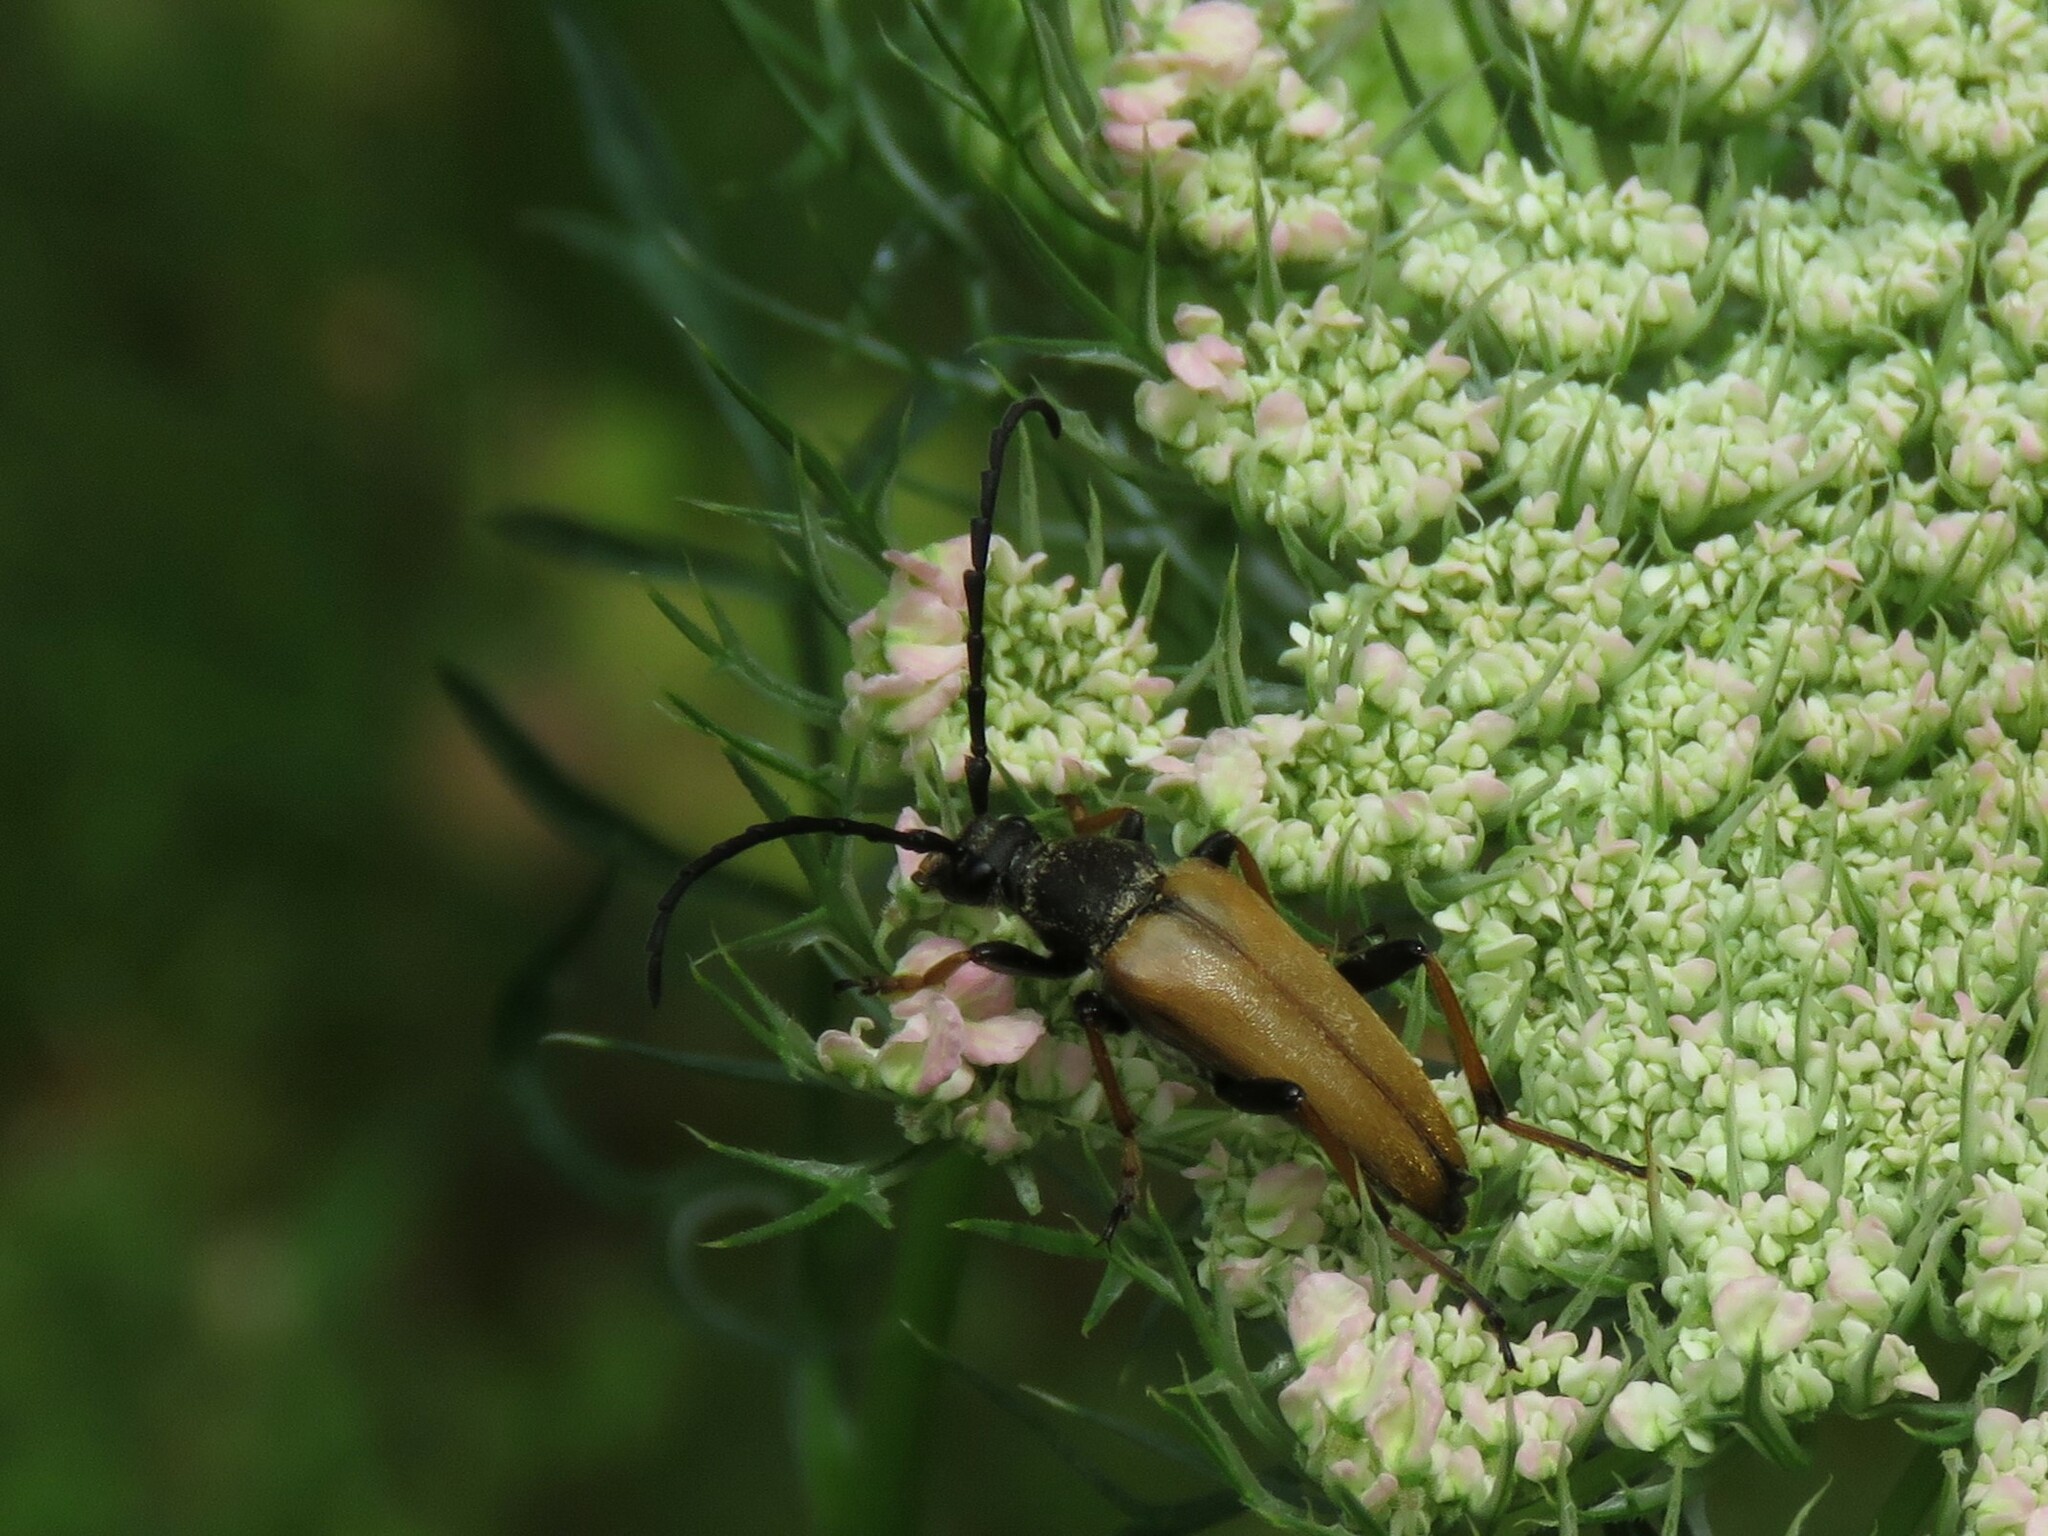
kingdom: Animalia
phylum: Arthropoda
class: Insecta
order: Coleoptera
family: Cerambycidae
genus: Stictoleptura
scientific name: Stictoleptura rubra
